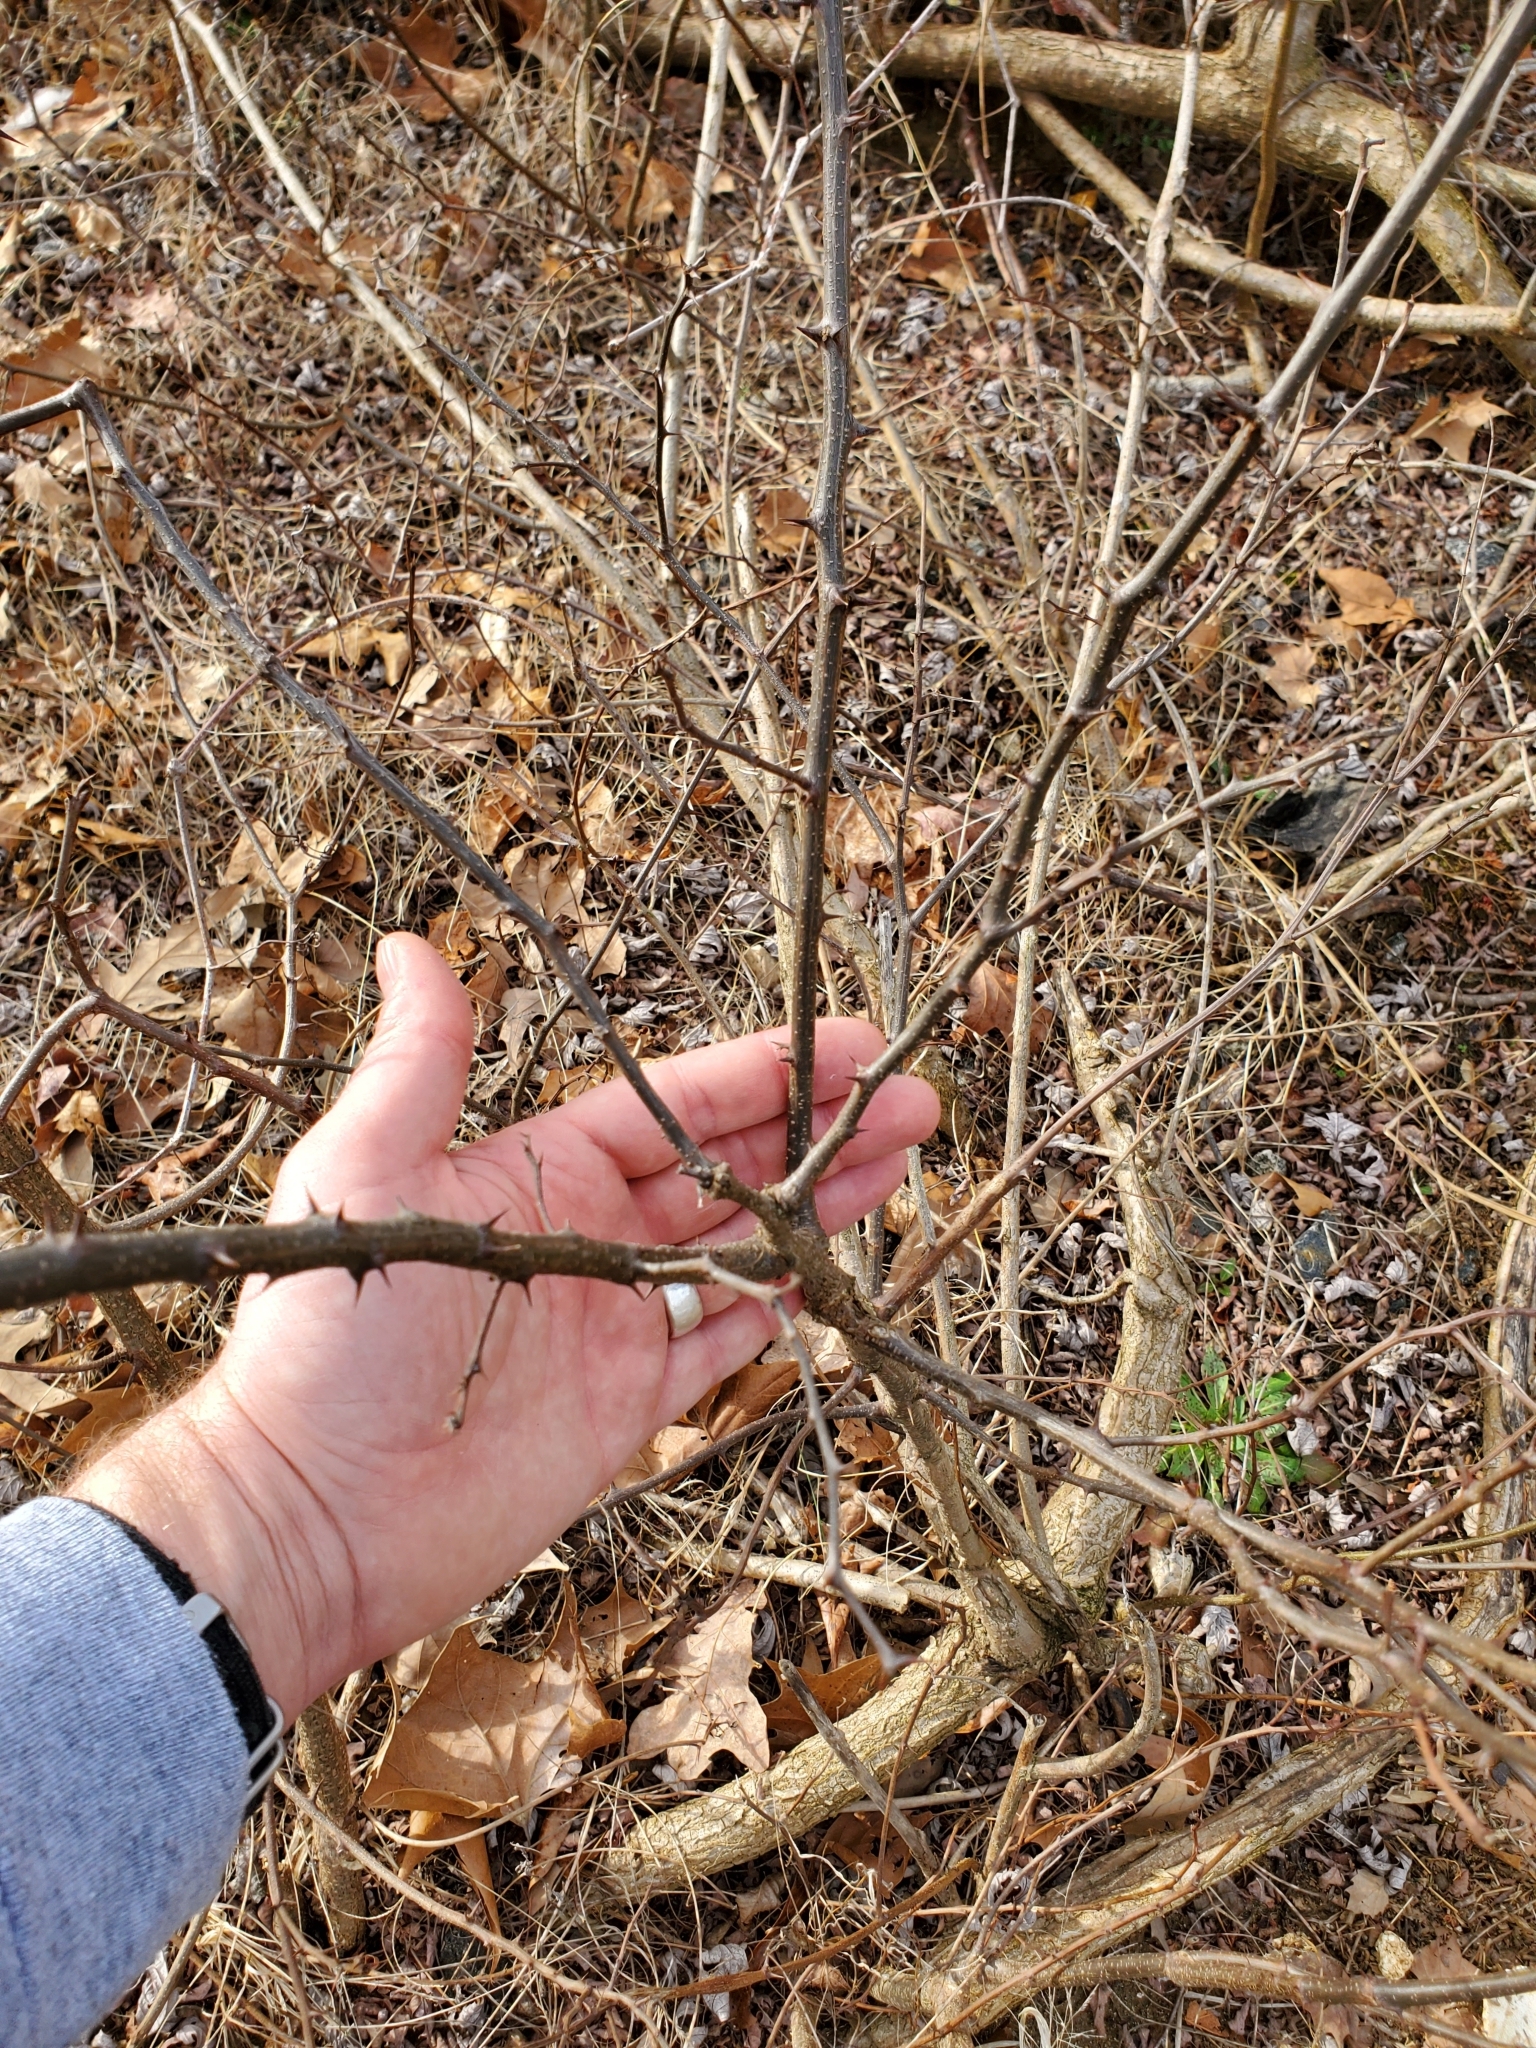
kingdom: Plantae
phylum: Tracheophyta
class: Magnoliopsida
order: Fabales
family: Fabaceae
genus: Robinia
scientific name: Robinia pseudoacacia
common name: Black locust
